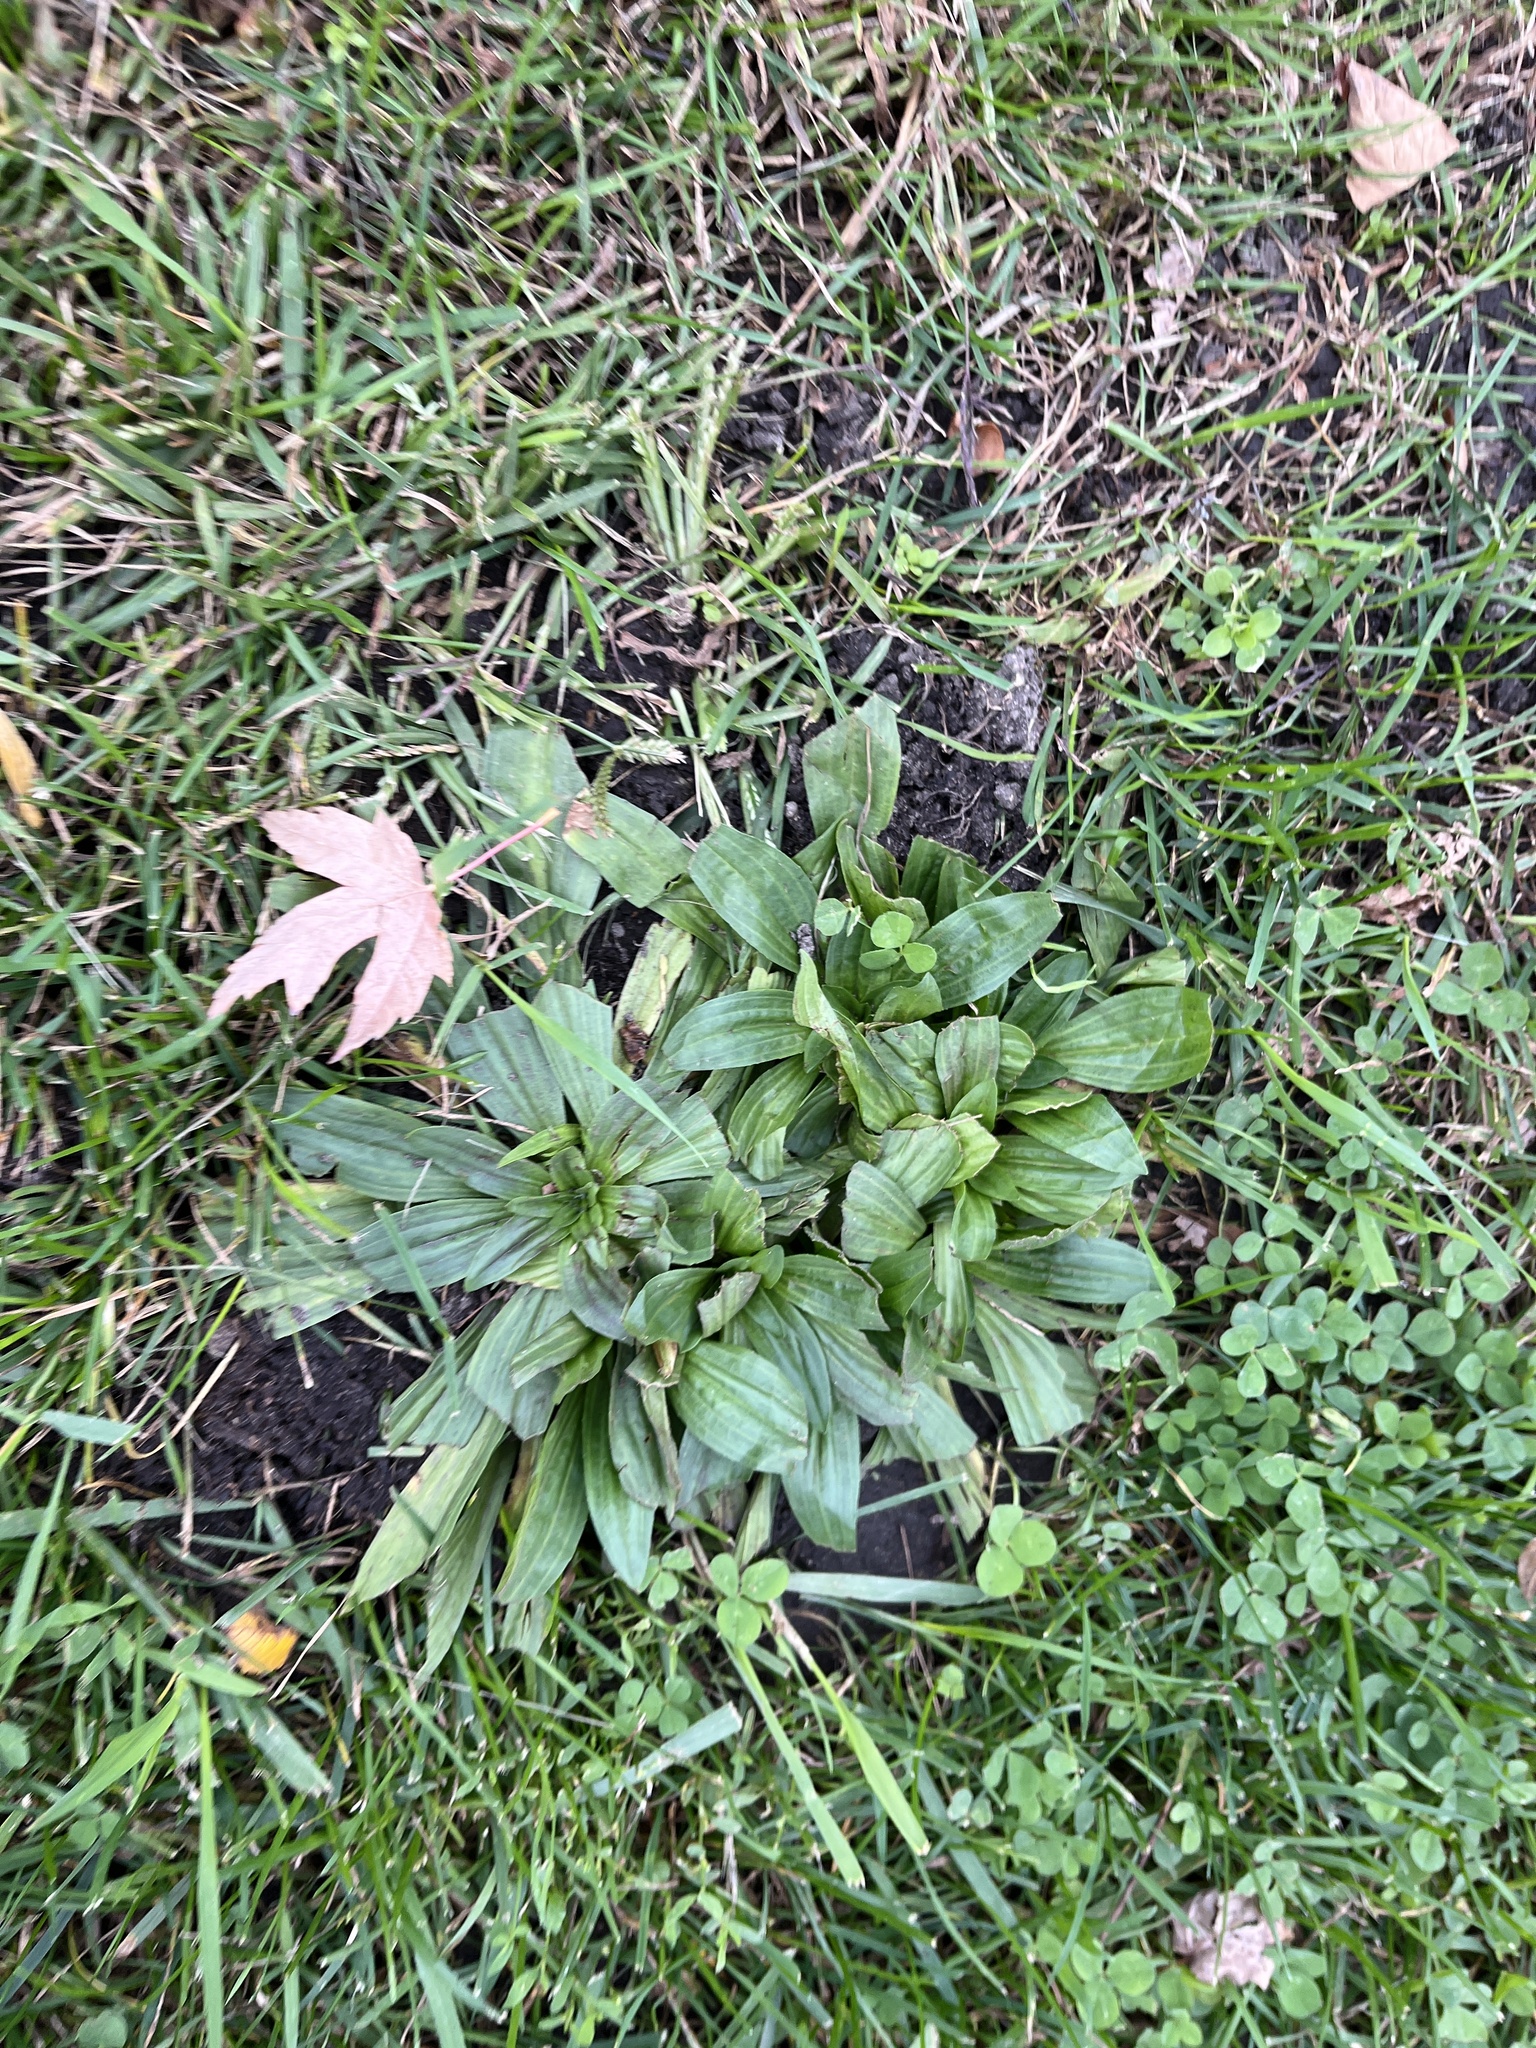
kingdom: Plantae
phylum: Tracheophyta
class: Magnoliopsida
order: Lamiales
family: Plantaginaceae
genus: Plantago
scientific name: Plantago lanceolata
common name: Ribwort plantain
